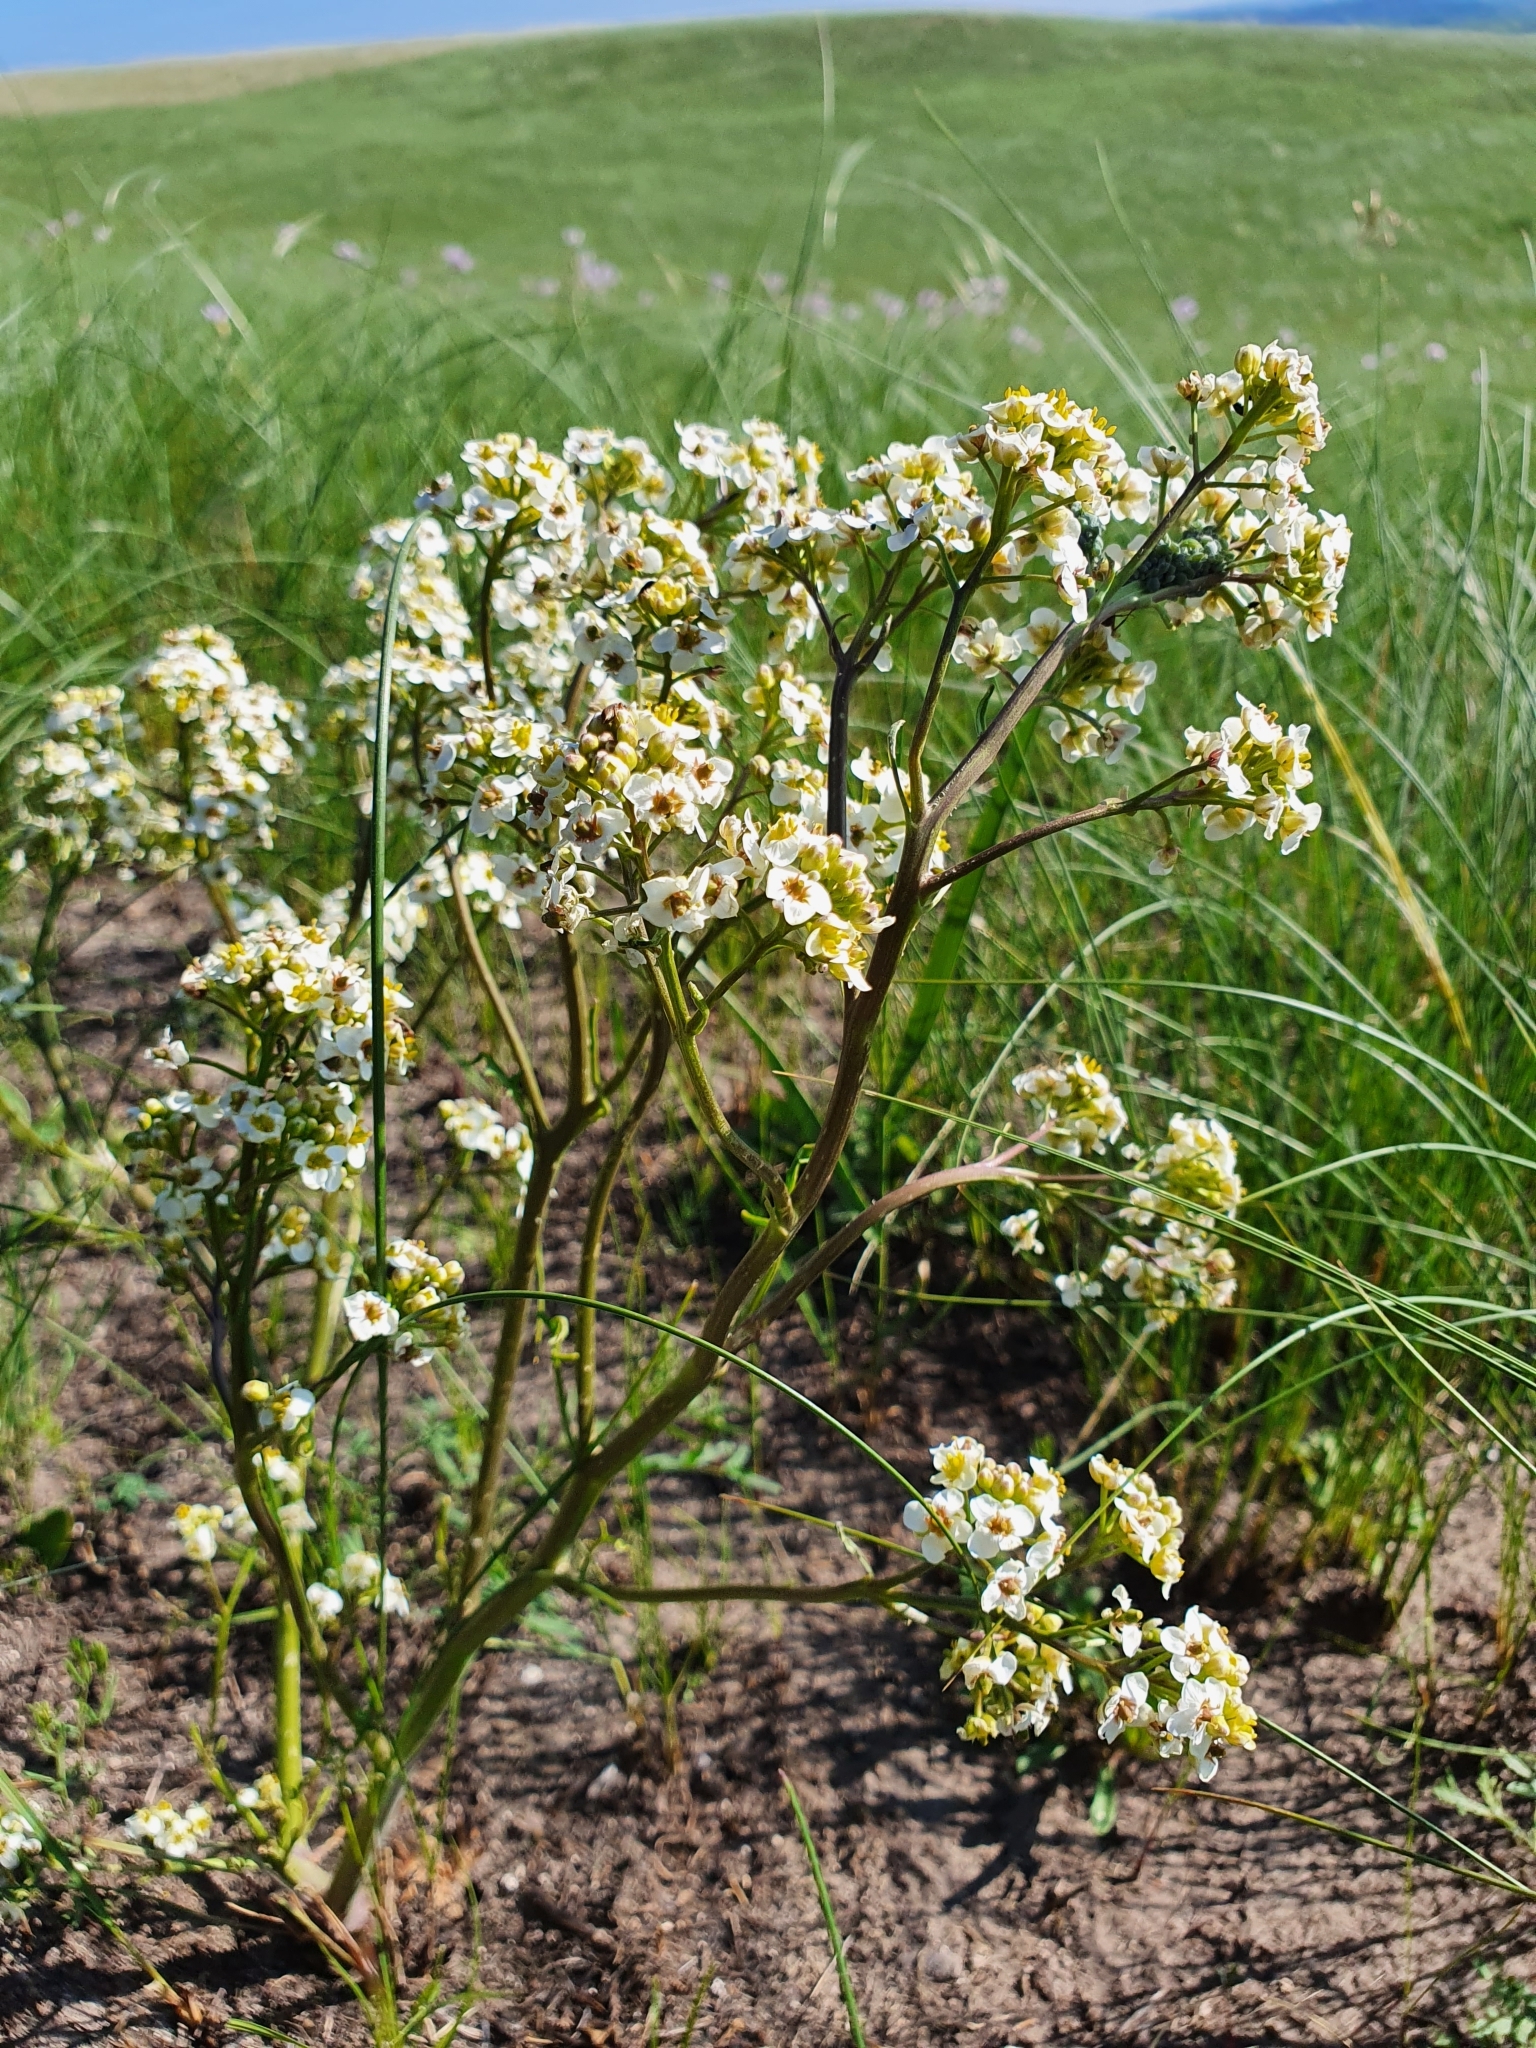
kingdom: Plantae
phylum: Tracheophyta
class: Magnoliopsida
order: Brassicales
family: Brassicaceae
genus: Crambe
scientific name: Crambe tataria
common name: Tartarian breadplant
